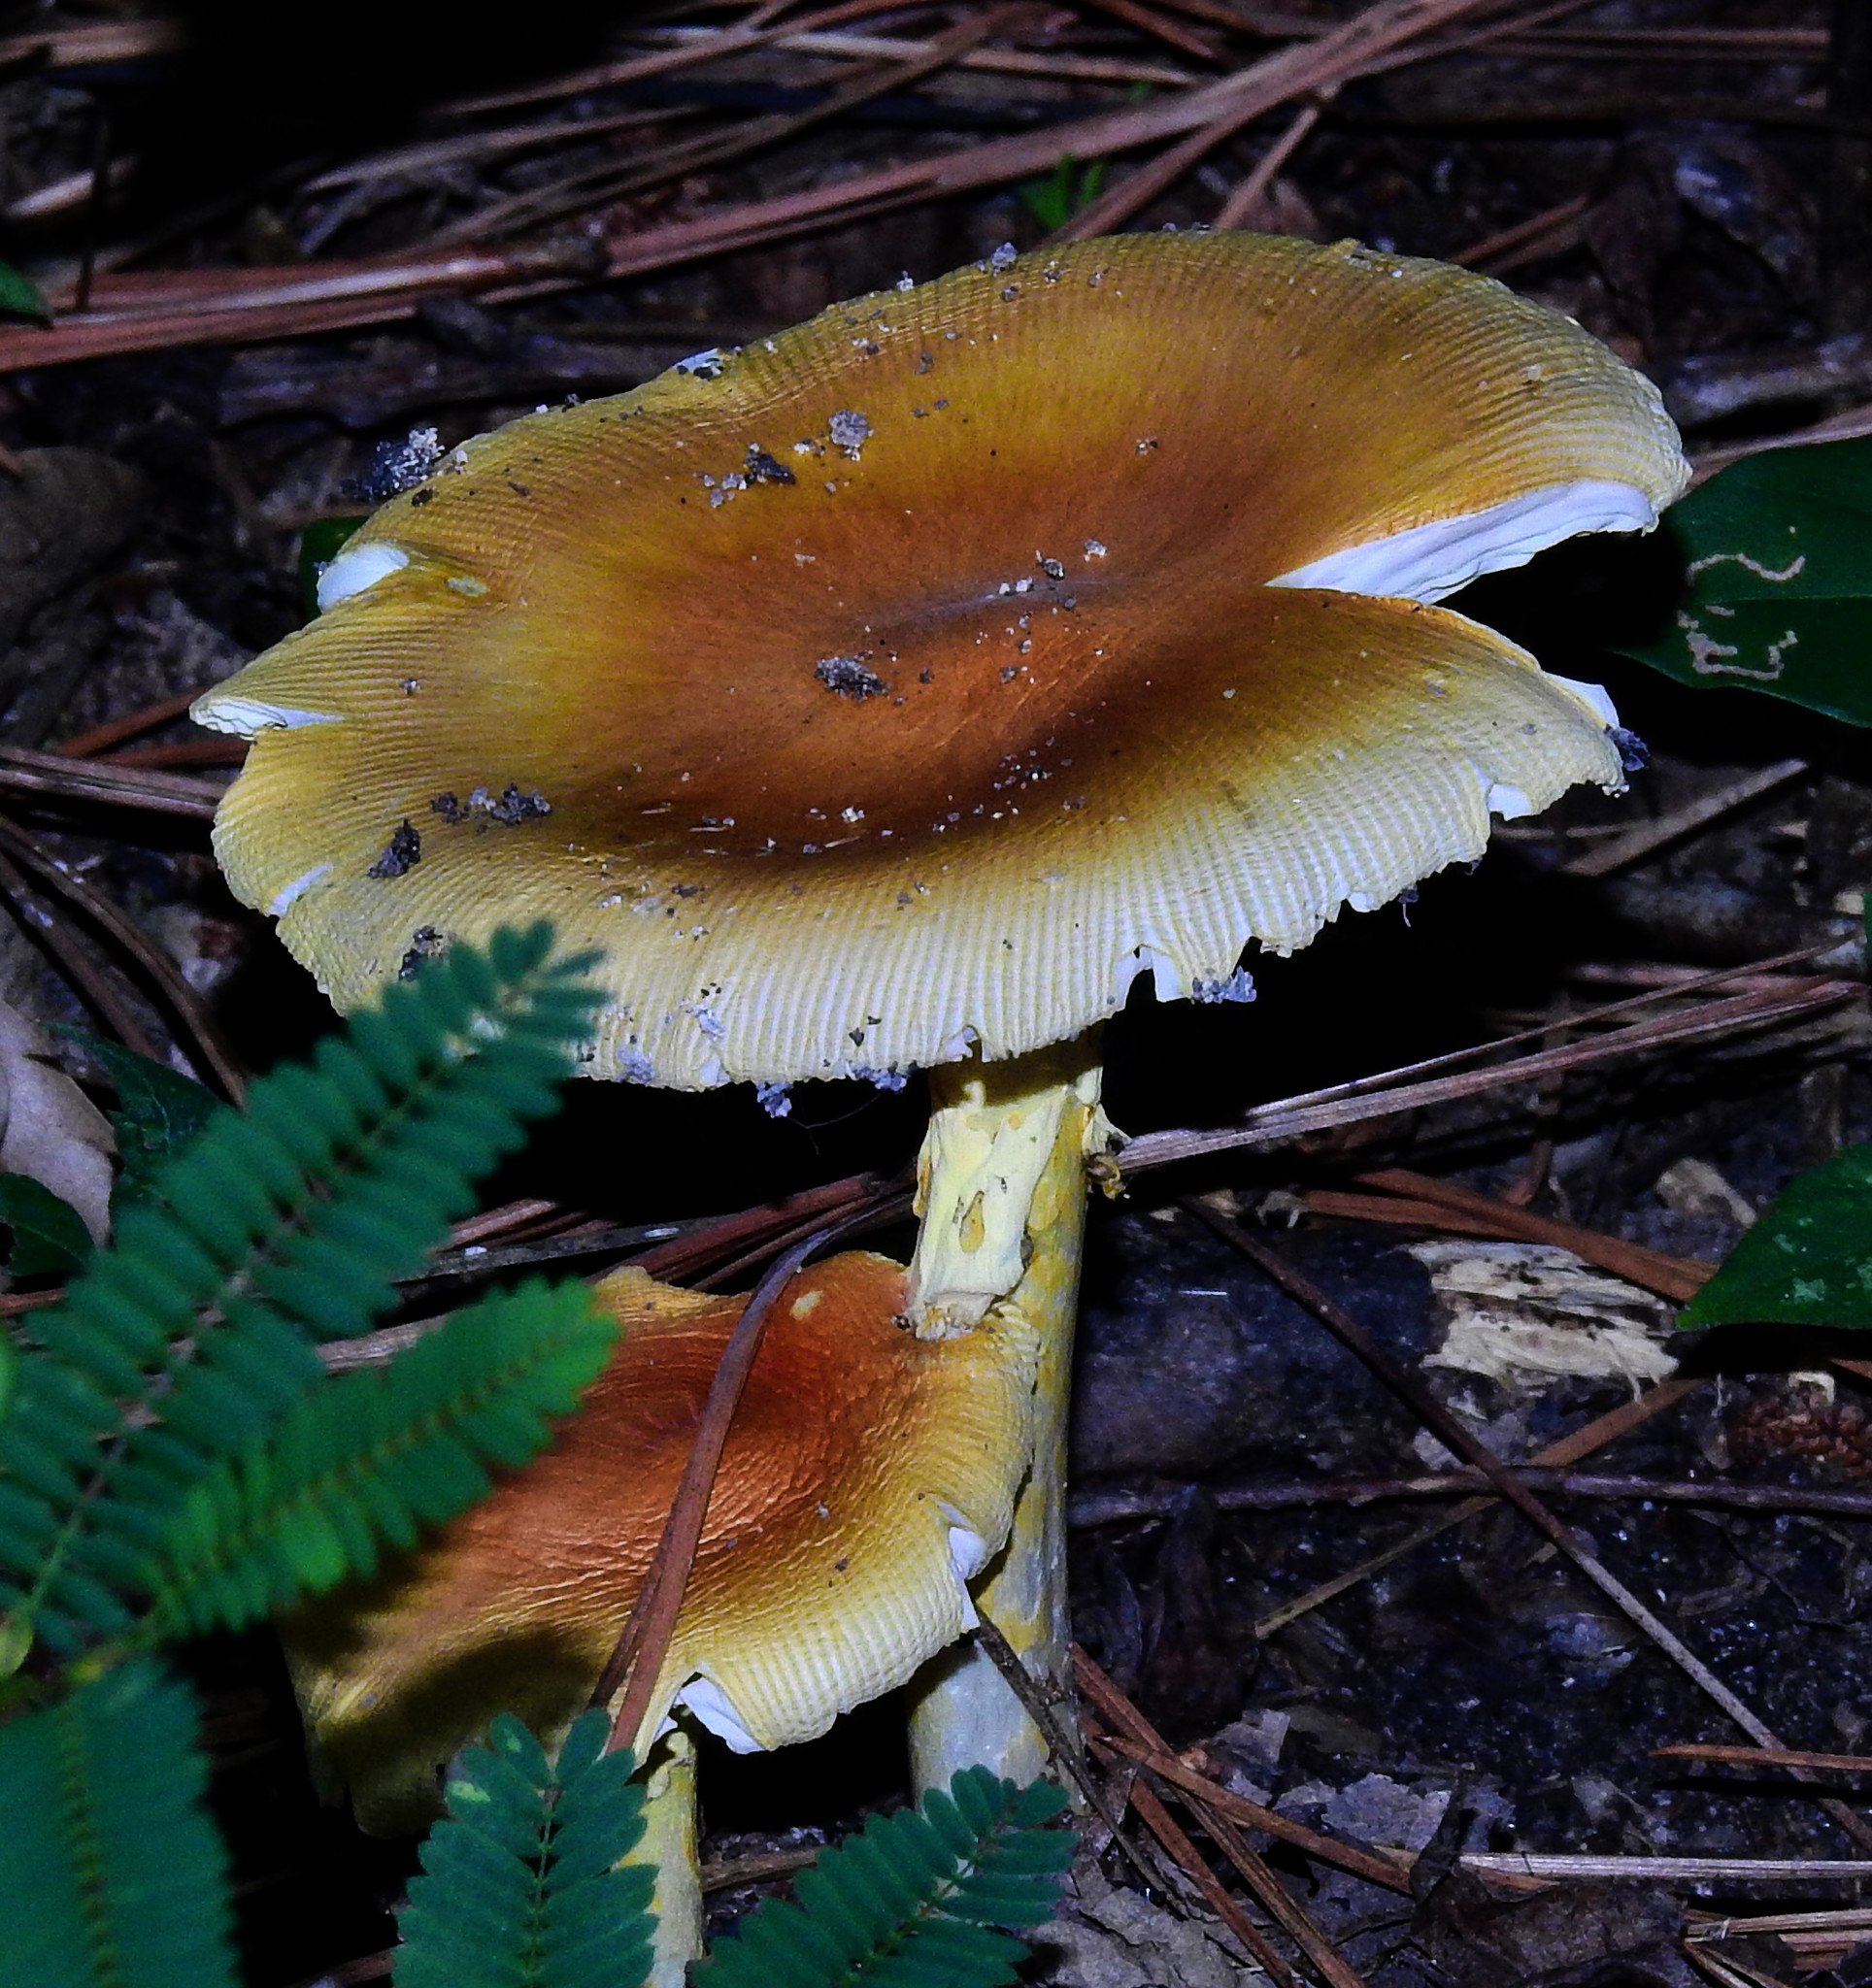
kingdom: Fungi
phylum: Basidiomycota
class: Agaricomycetes
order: Agaricales
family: Amanitaceae
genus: Amanita
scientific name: Amanita jacksonii
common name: Jackson's slender caesar
